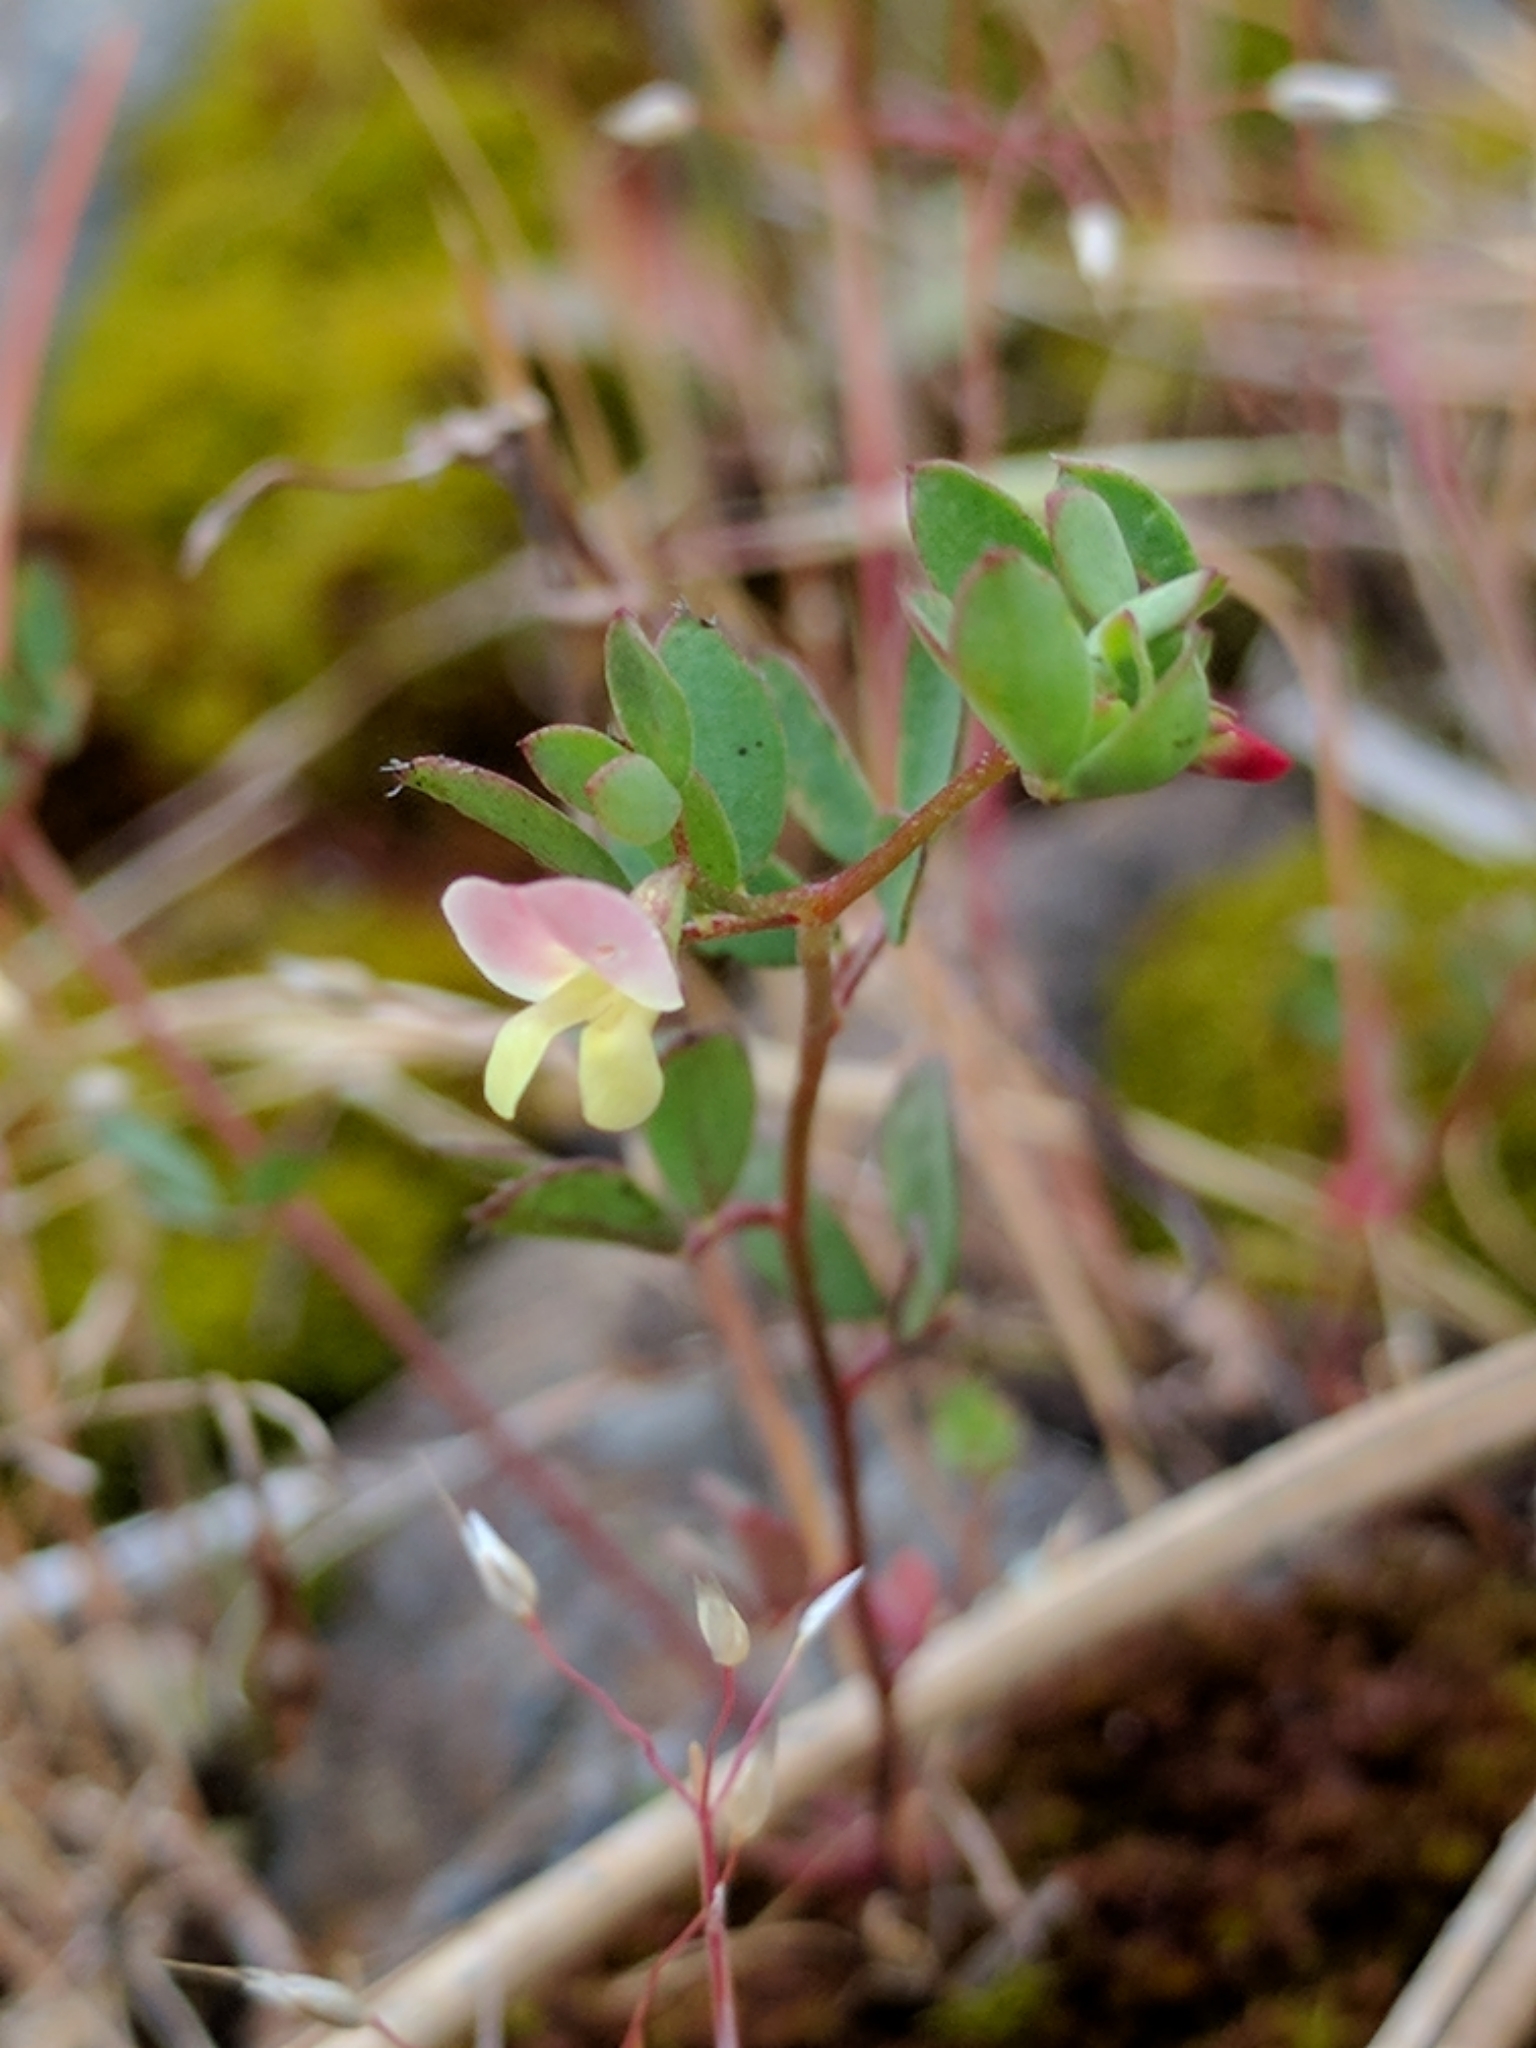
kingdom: Plantae
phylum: Tracheophyta
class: Magnoliopsida
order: Fabales
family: Fabaceae
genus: Acmispon
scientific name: Acmispon parviflorus
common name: Desert deer-vetch
